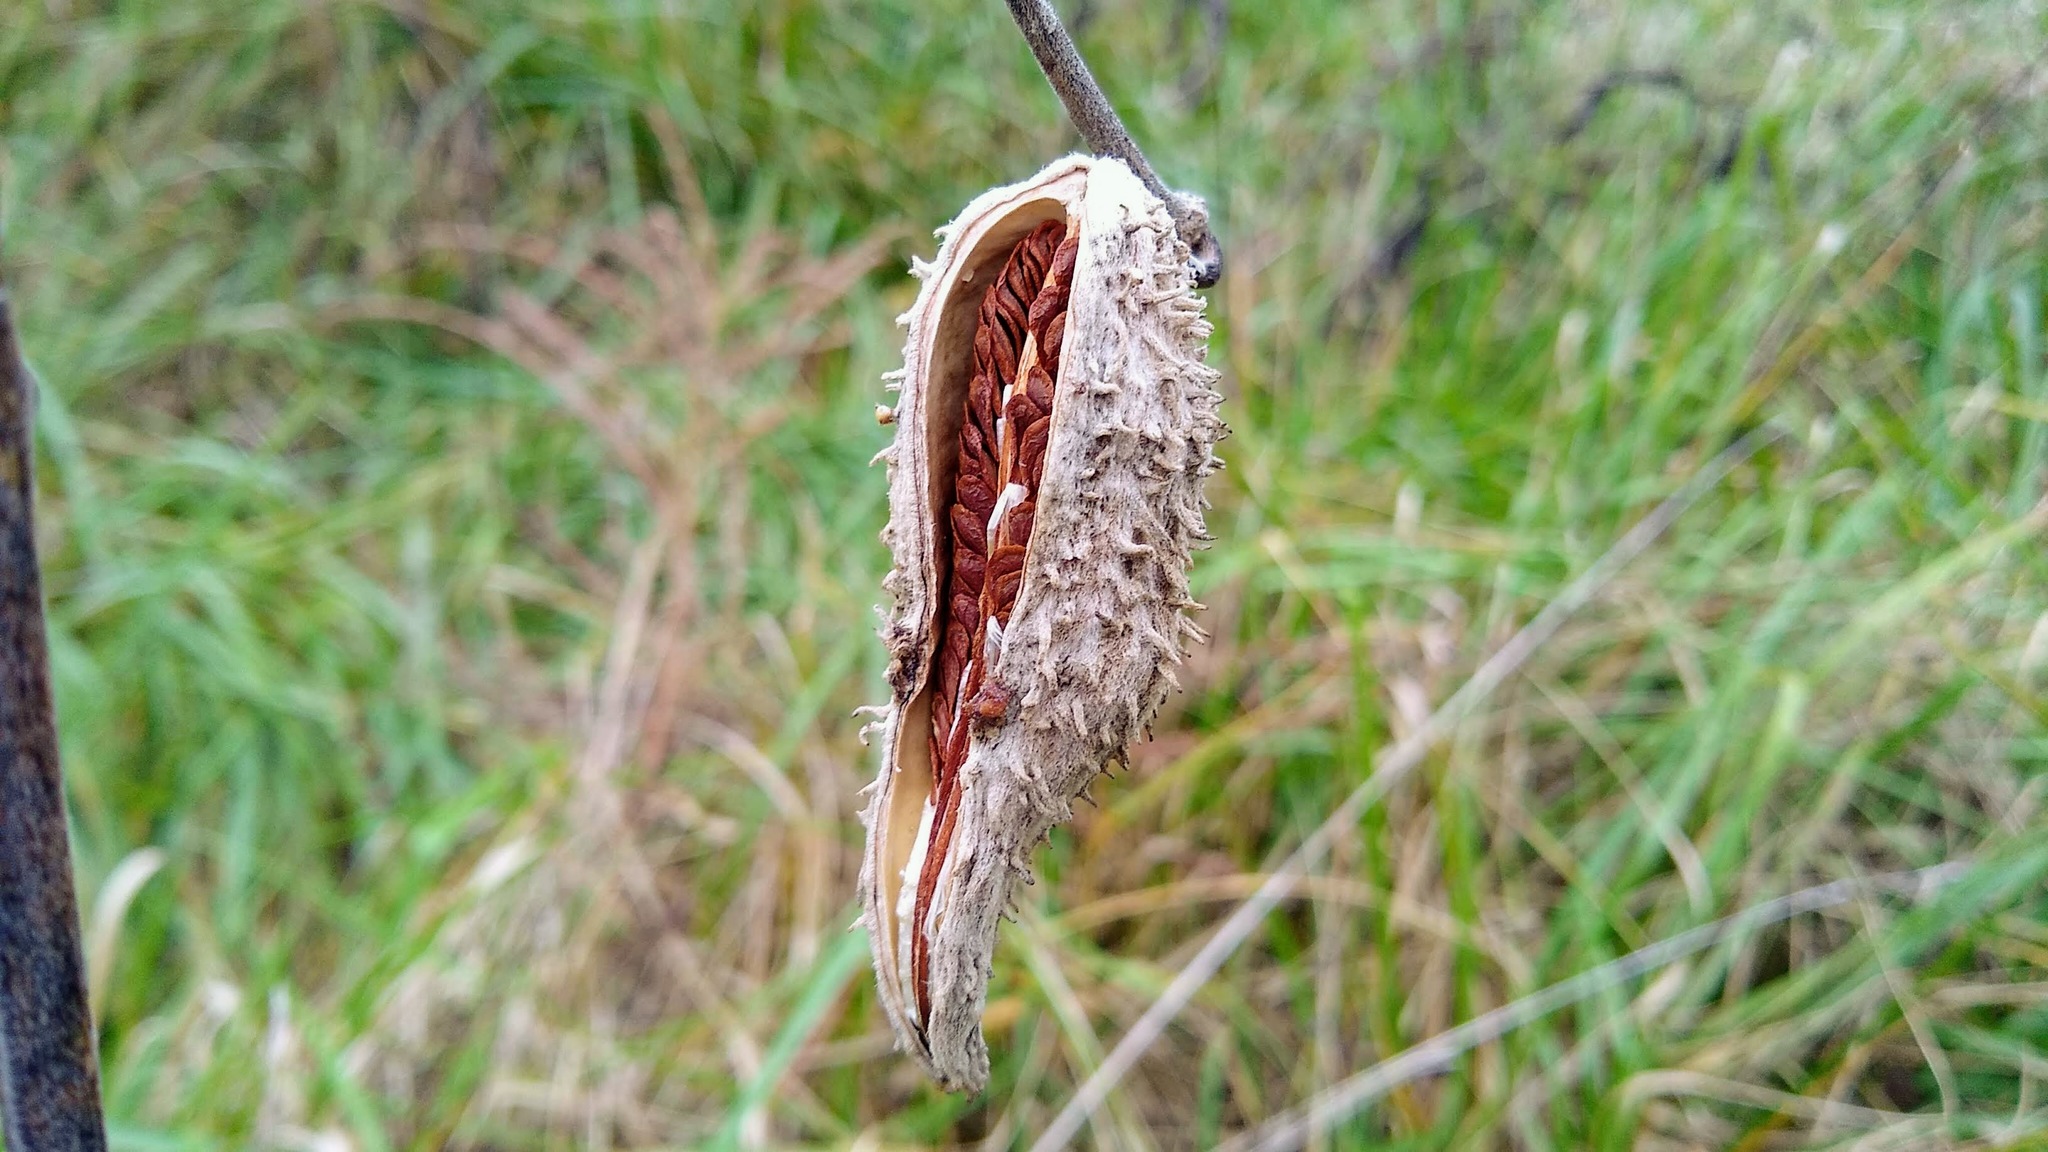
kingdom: Plantae
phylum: Tracheophyta
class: Magnoliopsida
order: Gentianales
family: Apocynaceae
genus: Asclepias
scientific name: Asclepias syriaca
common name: Common milkweed
